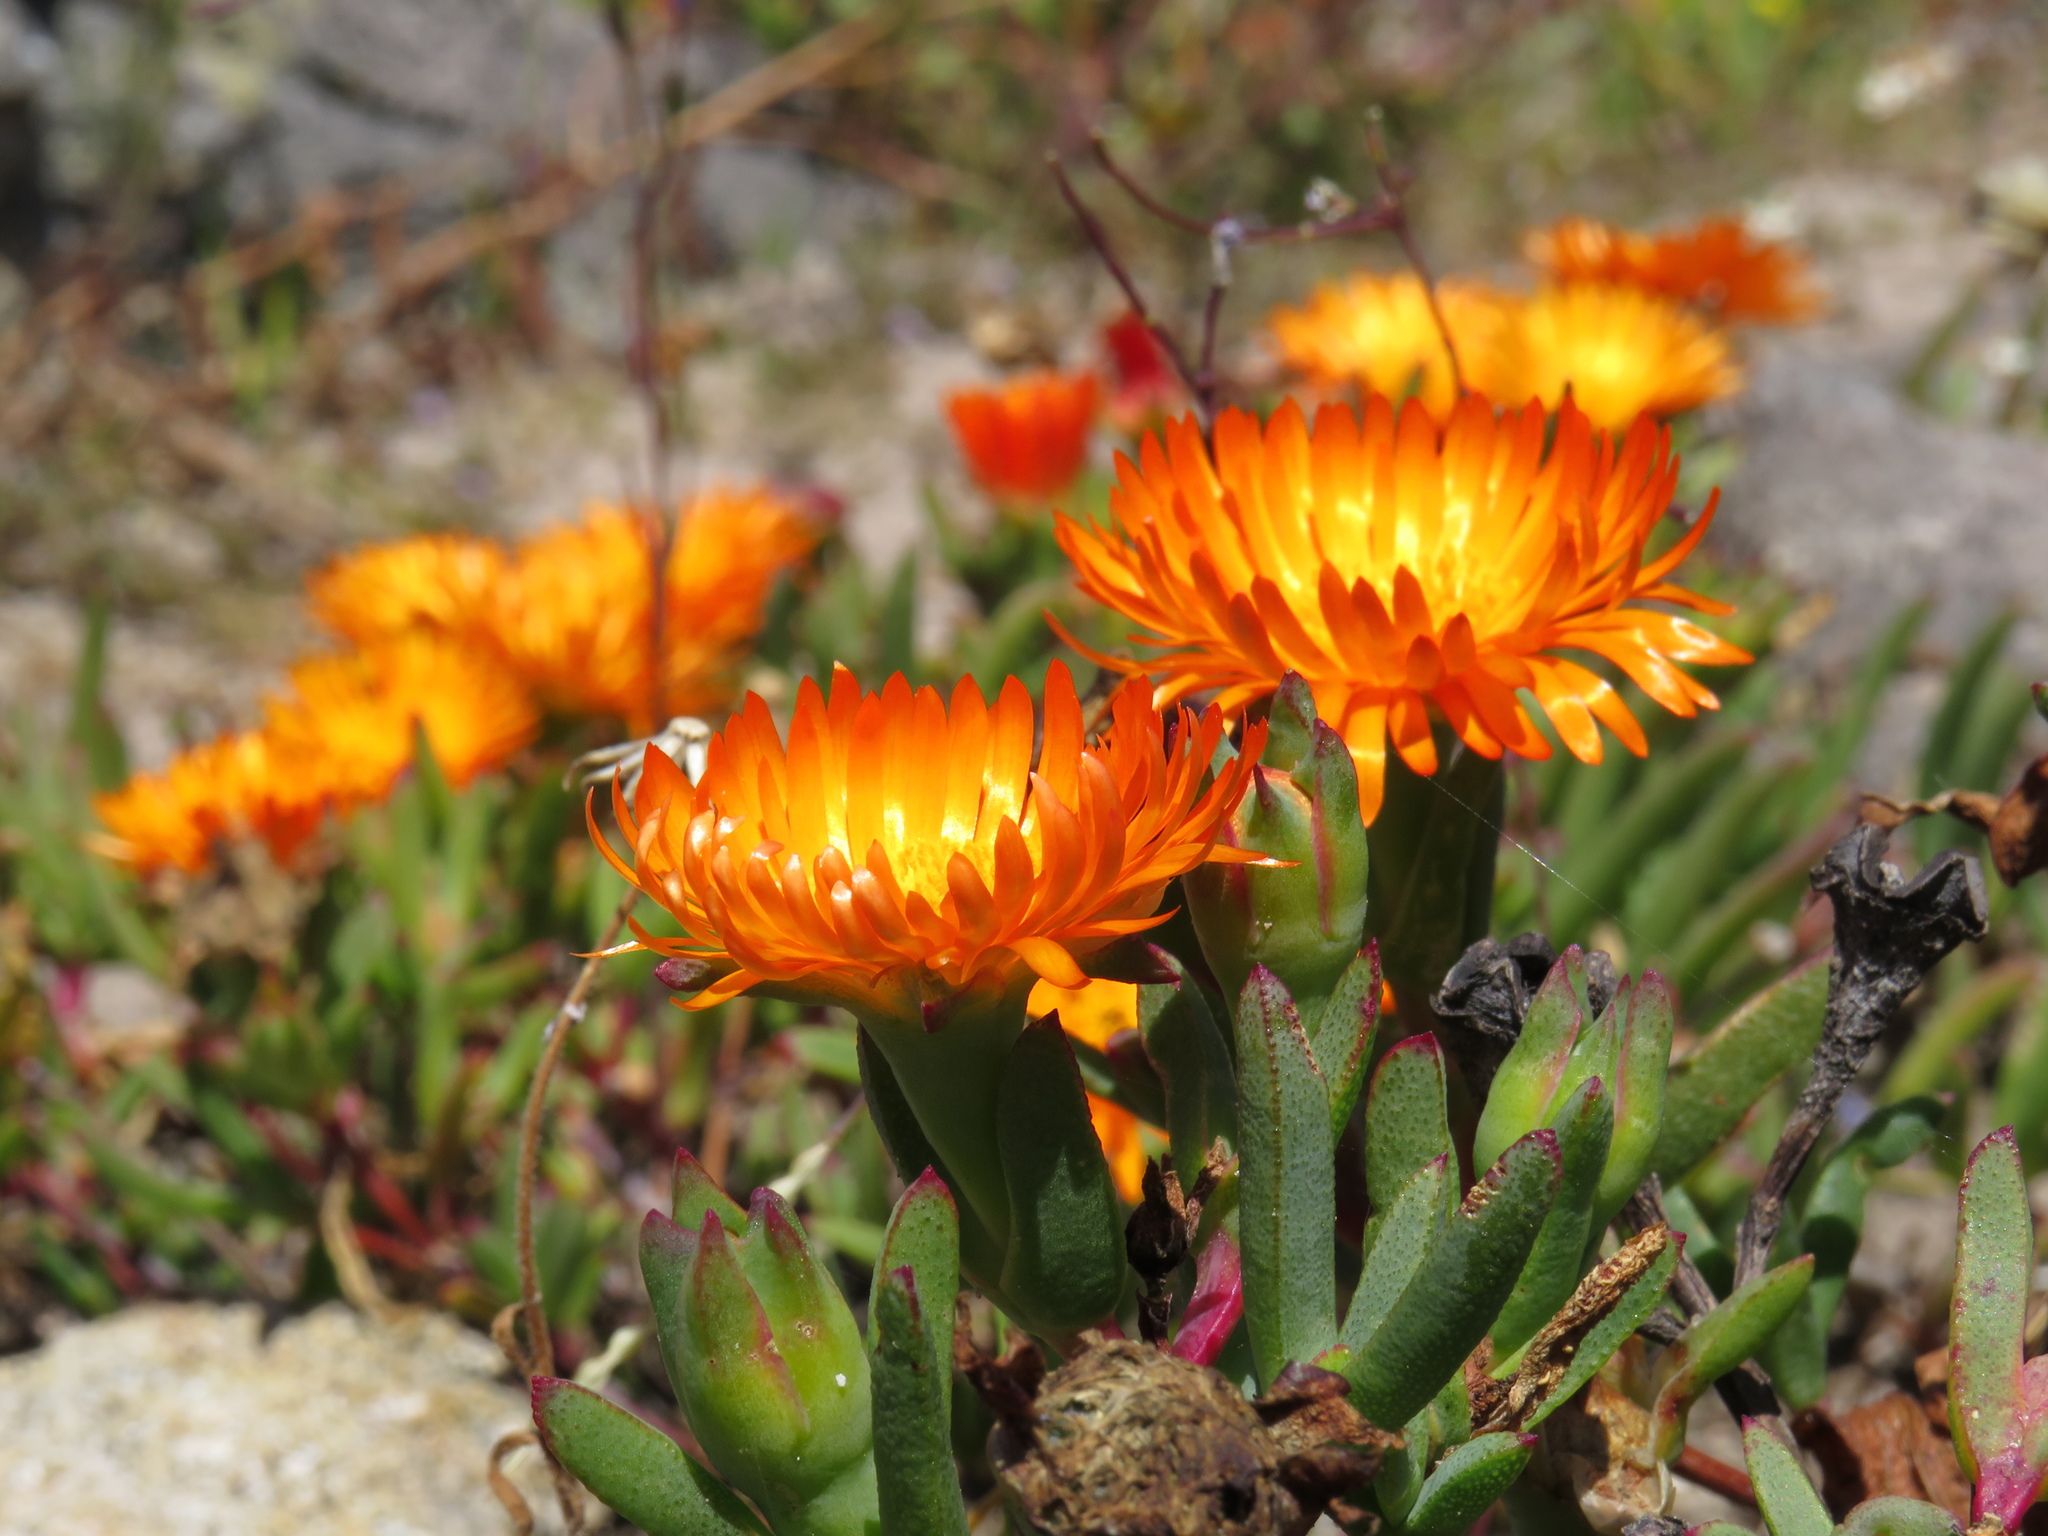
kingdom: Plantae
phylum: Tracheophyta
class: Magnoliopsida
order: Caryophyllales
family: Aizoaceae
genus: Lampranthus
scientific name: Lampranthus aureus
